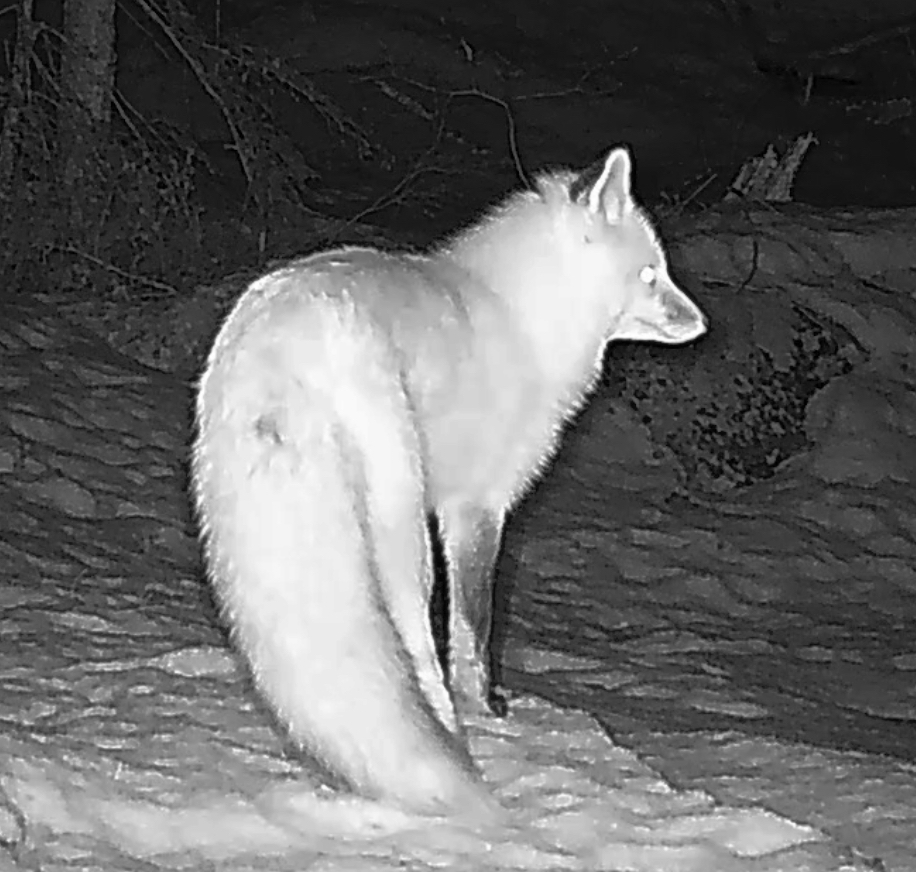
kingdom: Animalia
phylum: Chordata
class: Mammalia
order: Carnivora
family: Canidae
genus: Vulpes
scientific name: Vulpes vulpes
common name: Red fox
